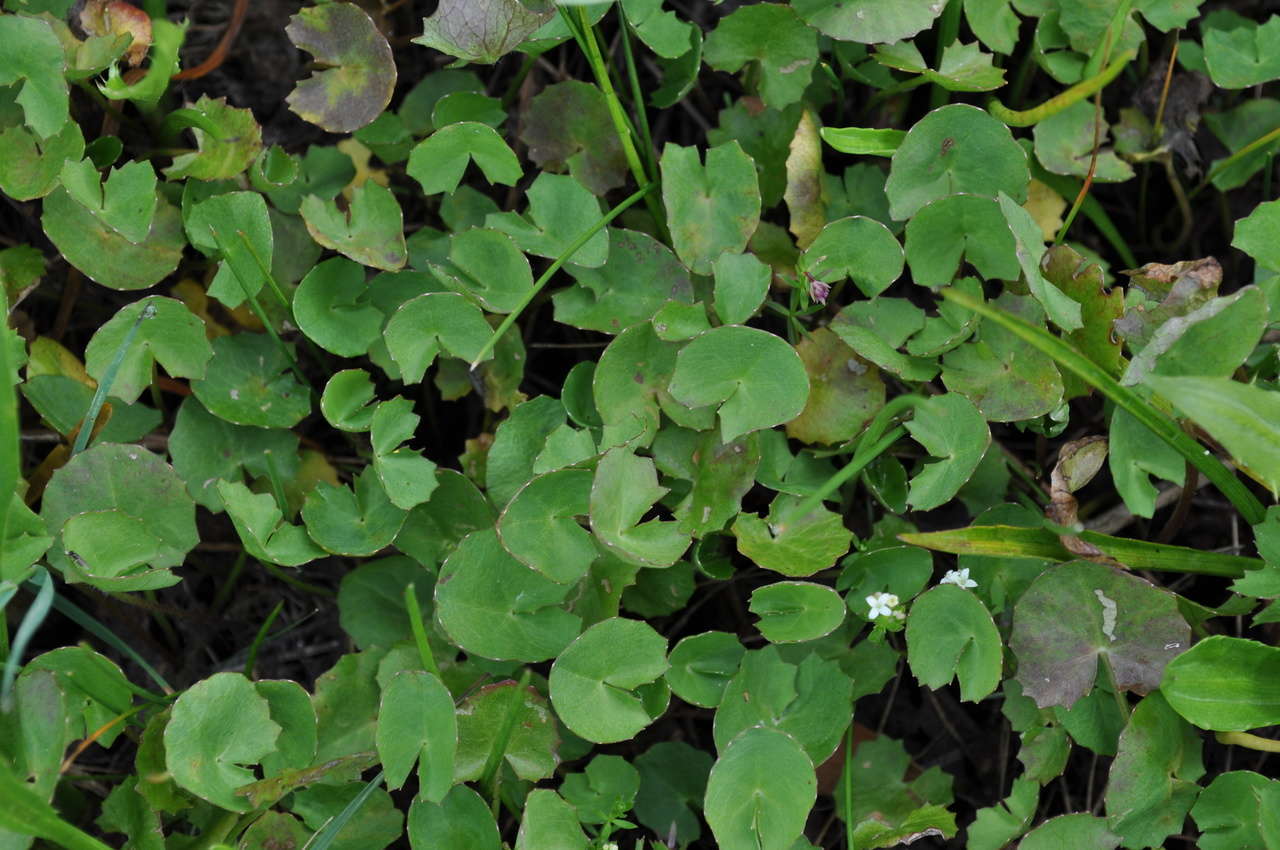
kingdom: Plantae
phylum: Tracheophyta
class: Magnoliopsida
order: Apiales
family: Apiaceae
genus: Centella
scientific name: Centella cordifolia
